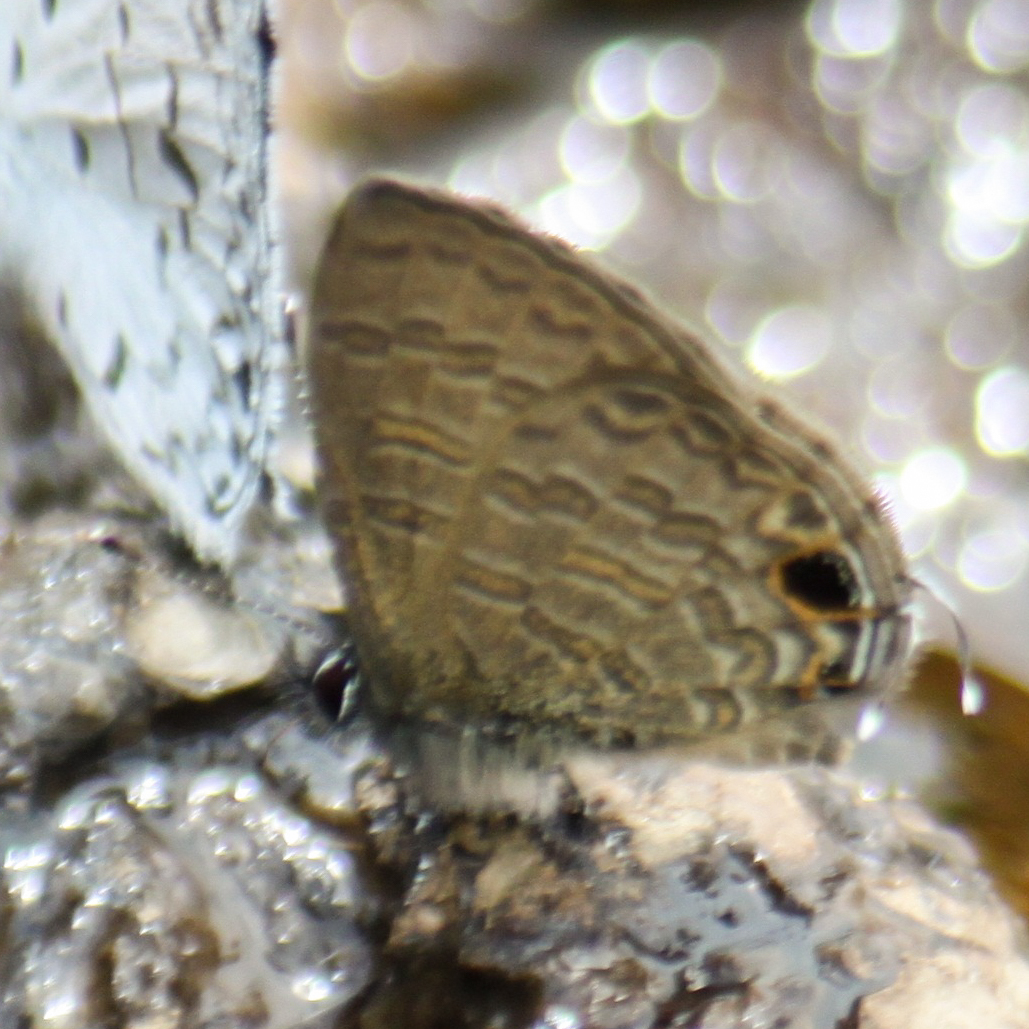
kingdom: Animalia
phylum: Arthropoda
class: Insecta
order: Lepidoptera
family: Lycaenidae
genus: Prosotas
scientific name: Prosotas nora
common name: Common line blue
